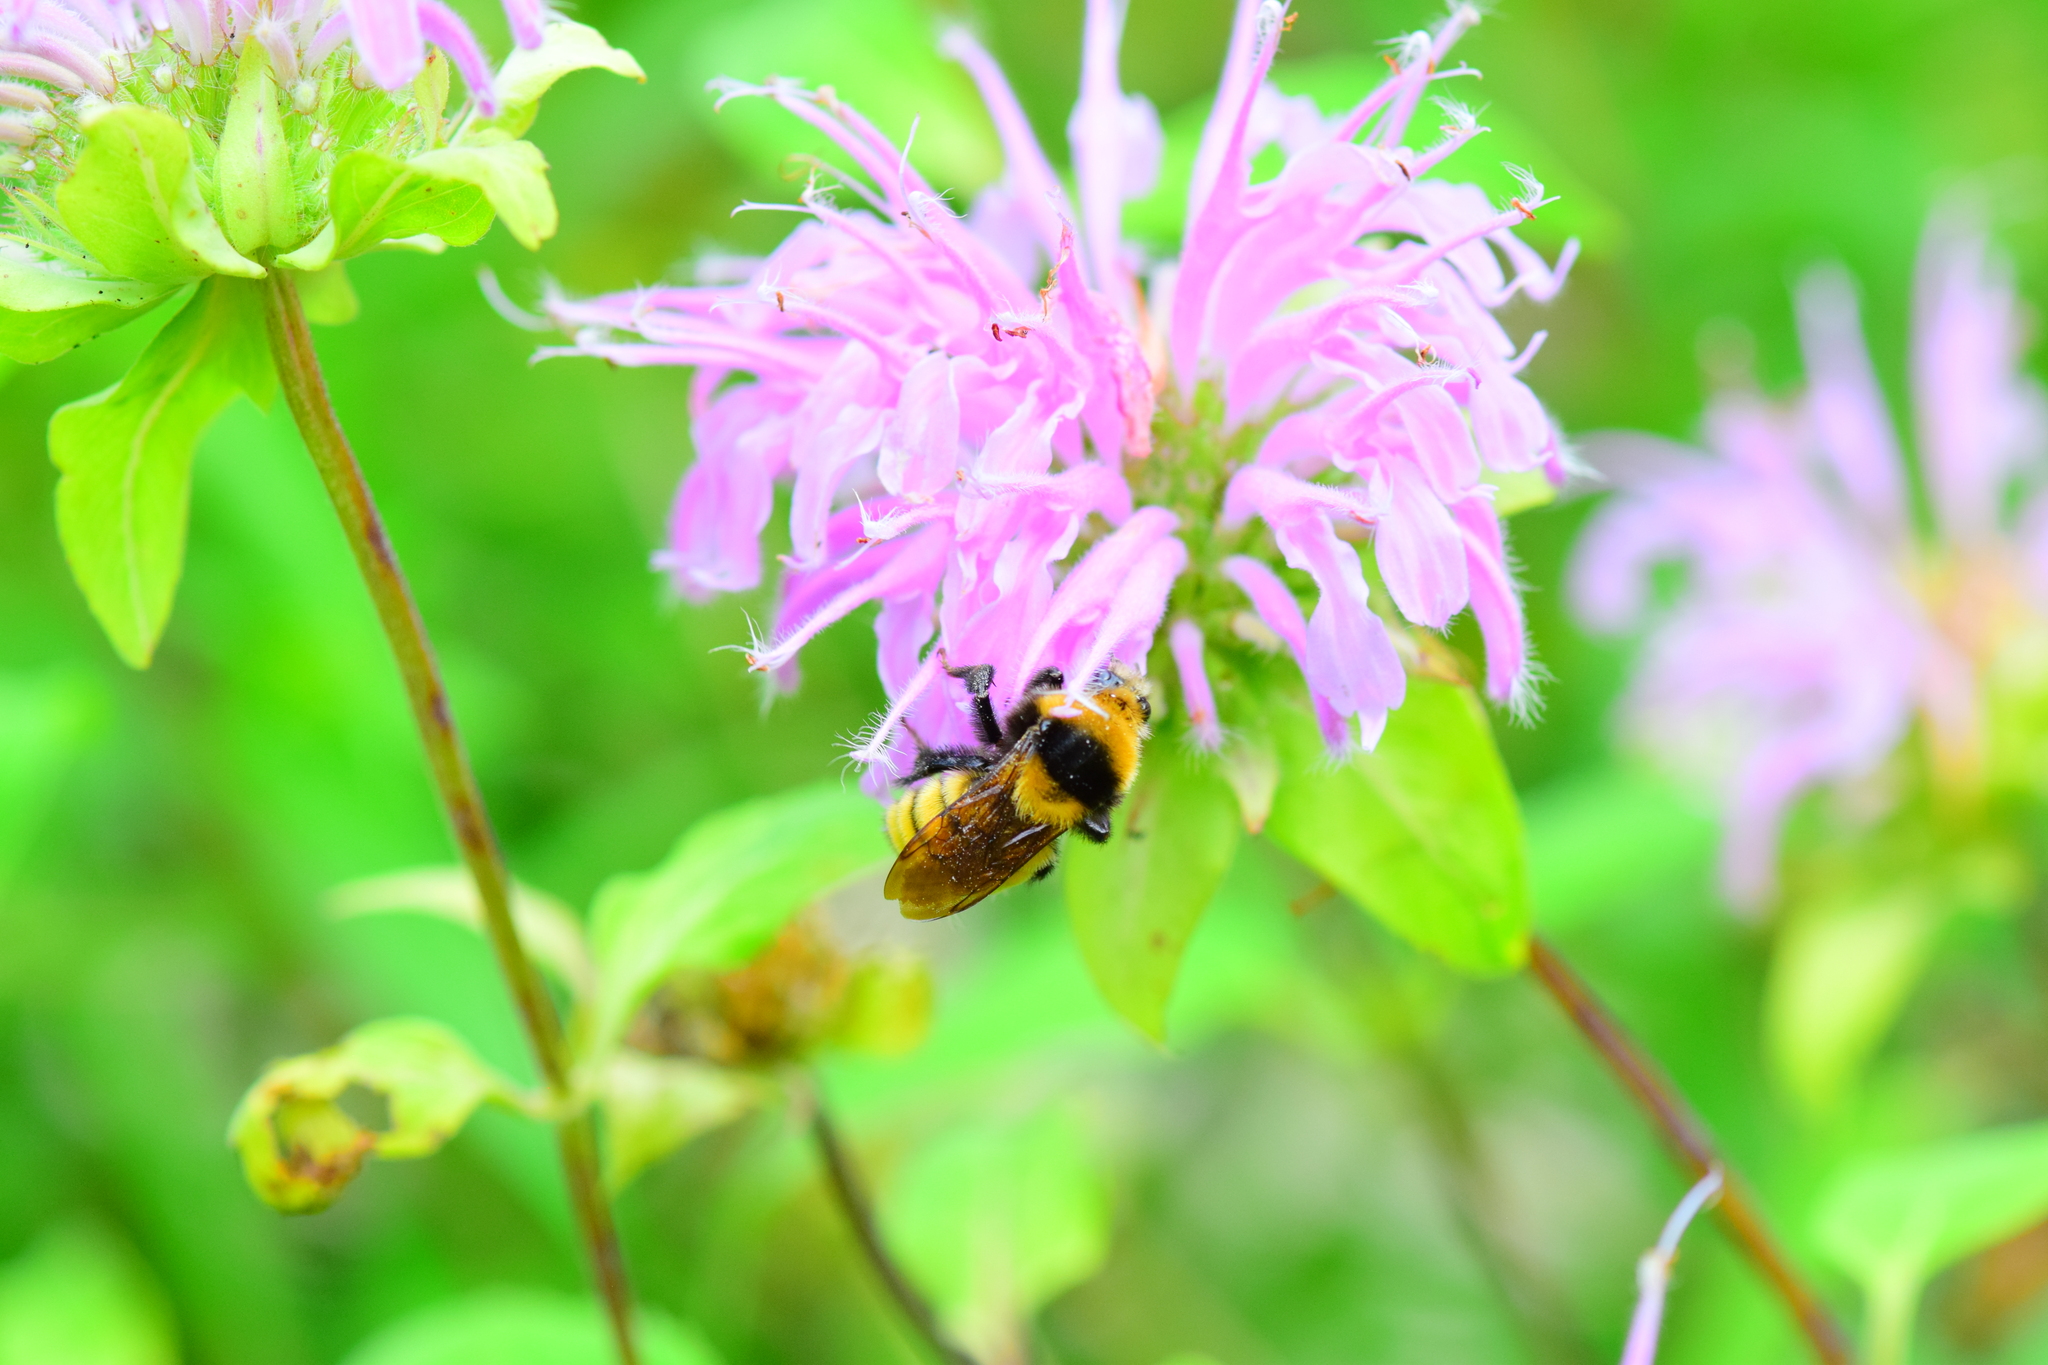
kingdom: Animalia
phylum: Arthropoda
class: Insecta
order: Hymenoptera
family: Apidae
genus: Bombus
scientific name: Bombus borealis
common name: Northern amber bumble bee
